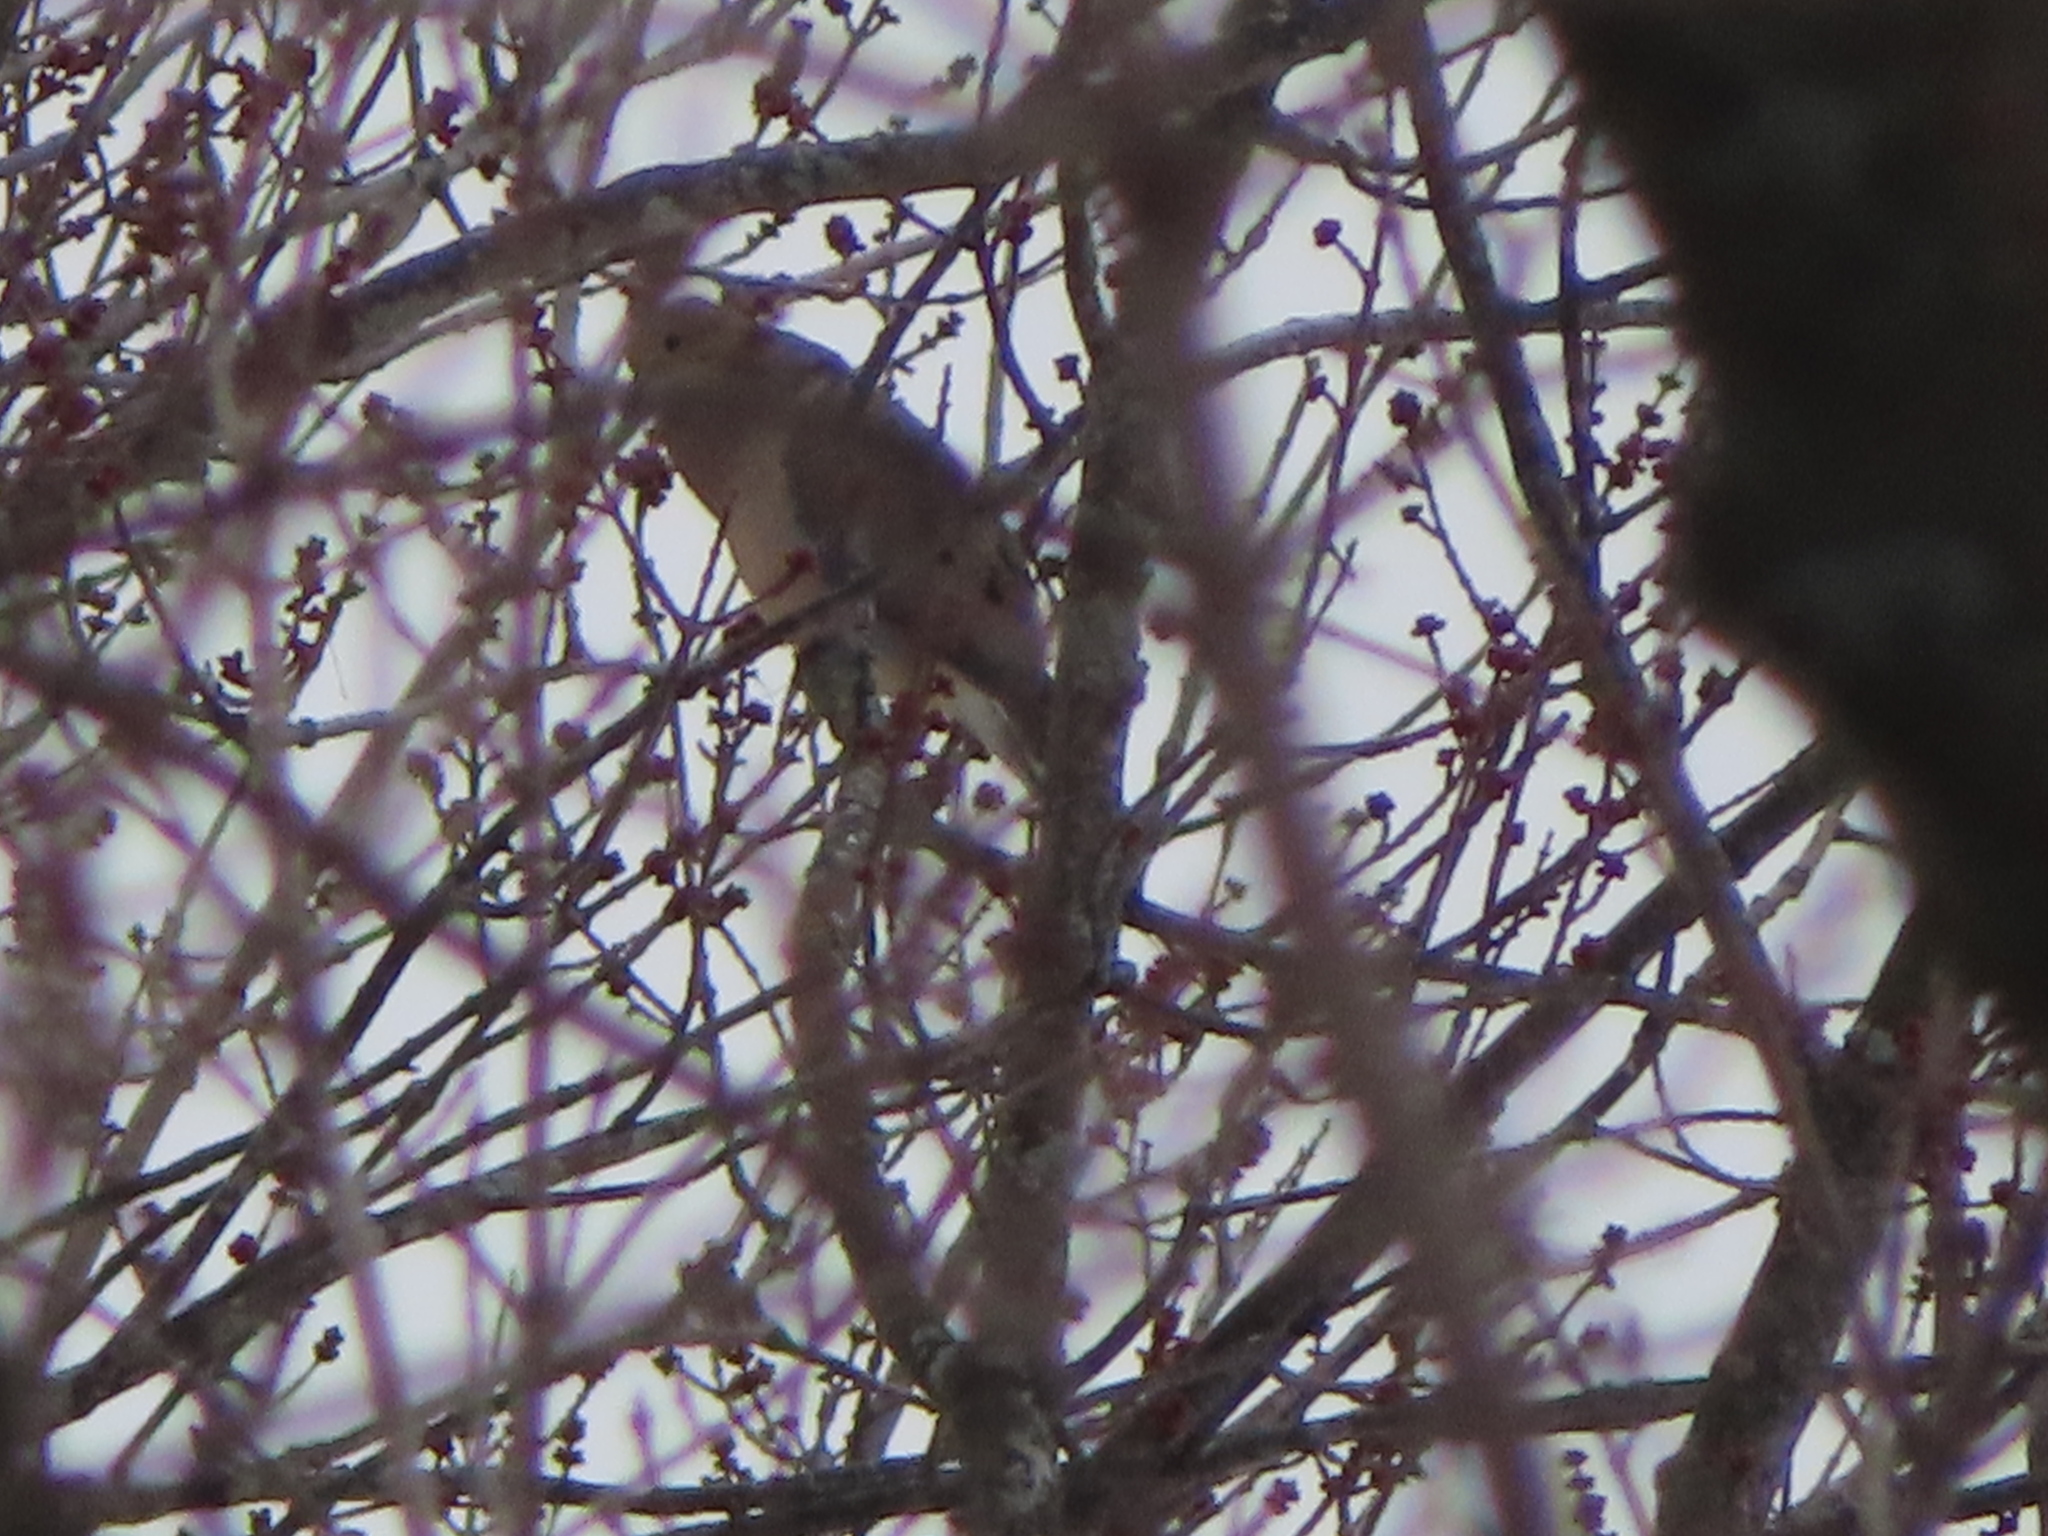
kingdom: Animalia
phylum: Chordata
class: Aves
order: Columbiformes
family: Columbidae
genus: Zenaida
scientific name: Zenaida macroura
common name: Mourning dove
